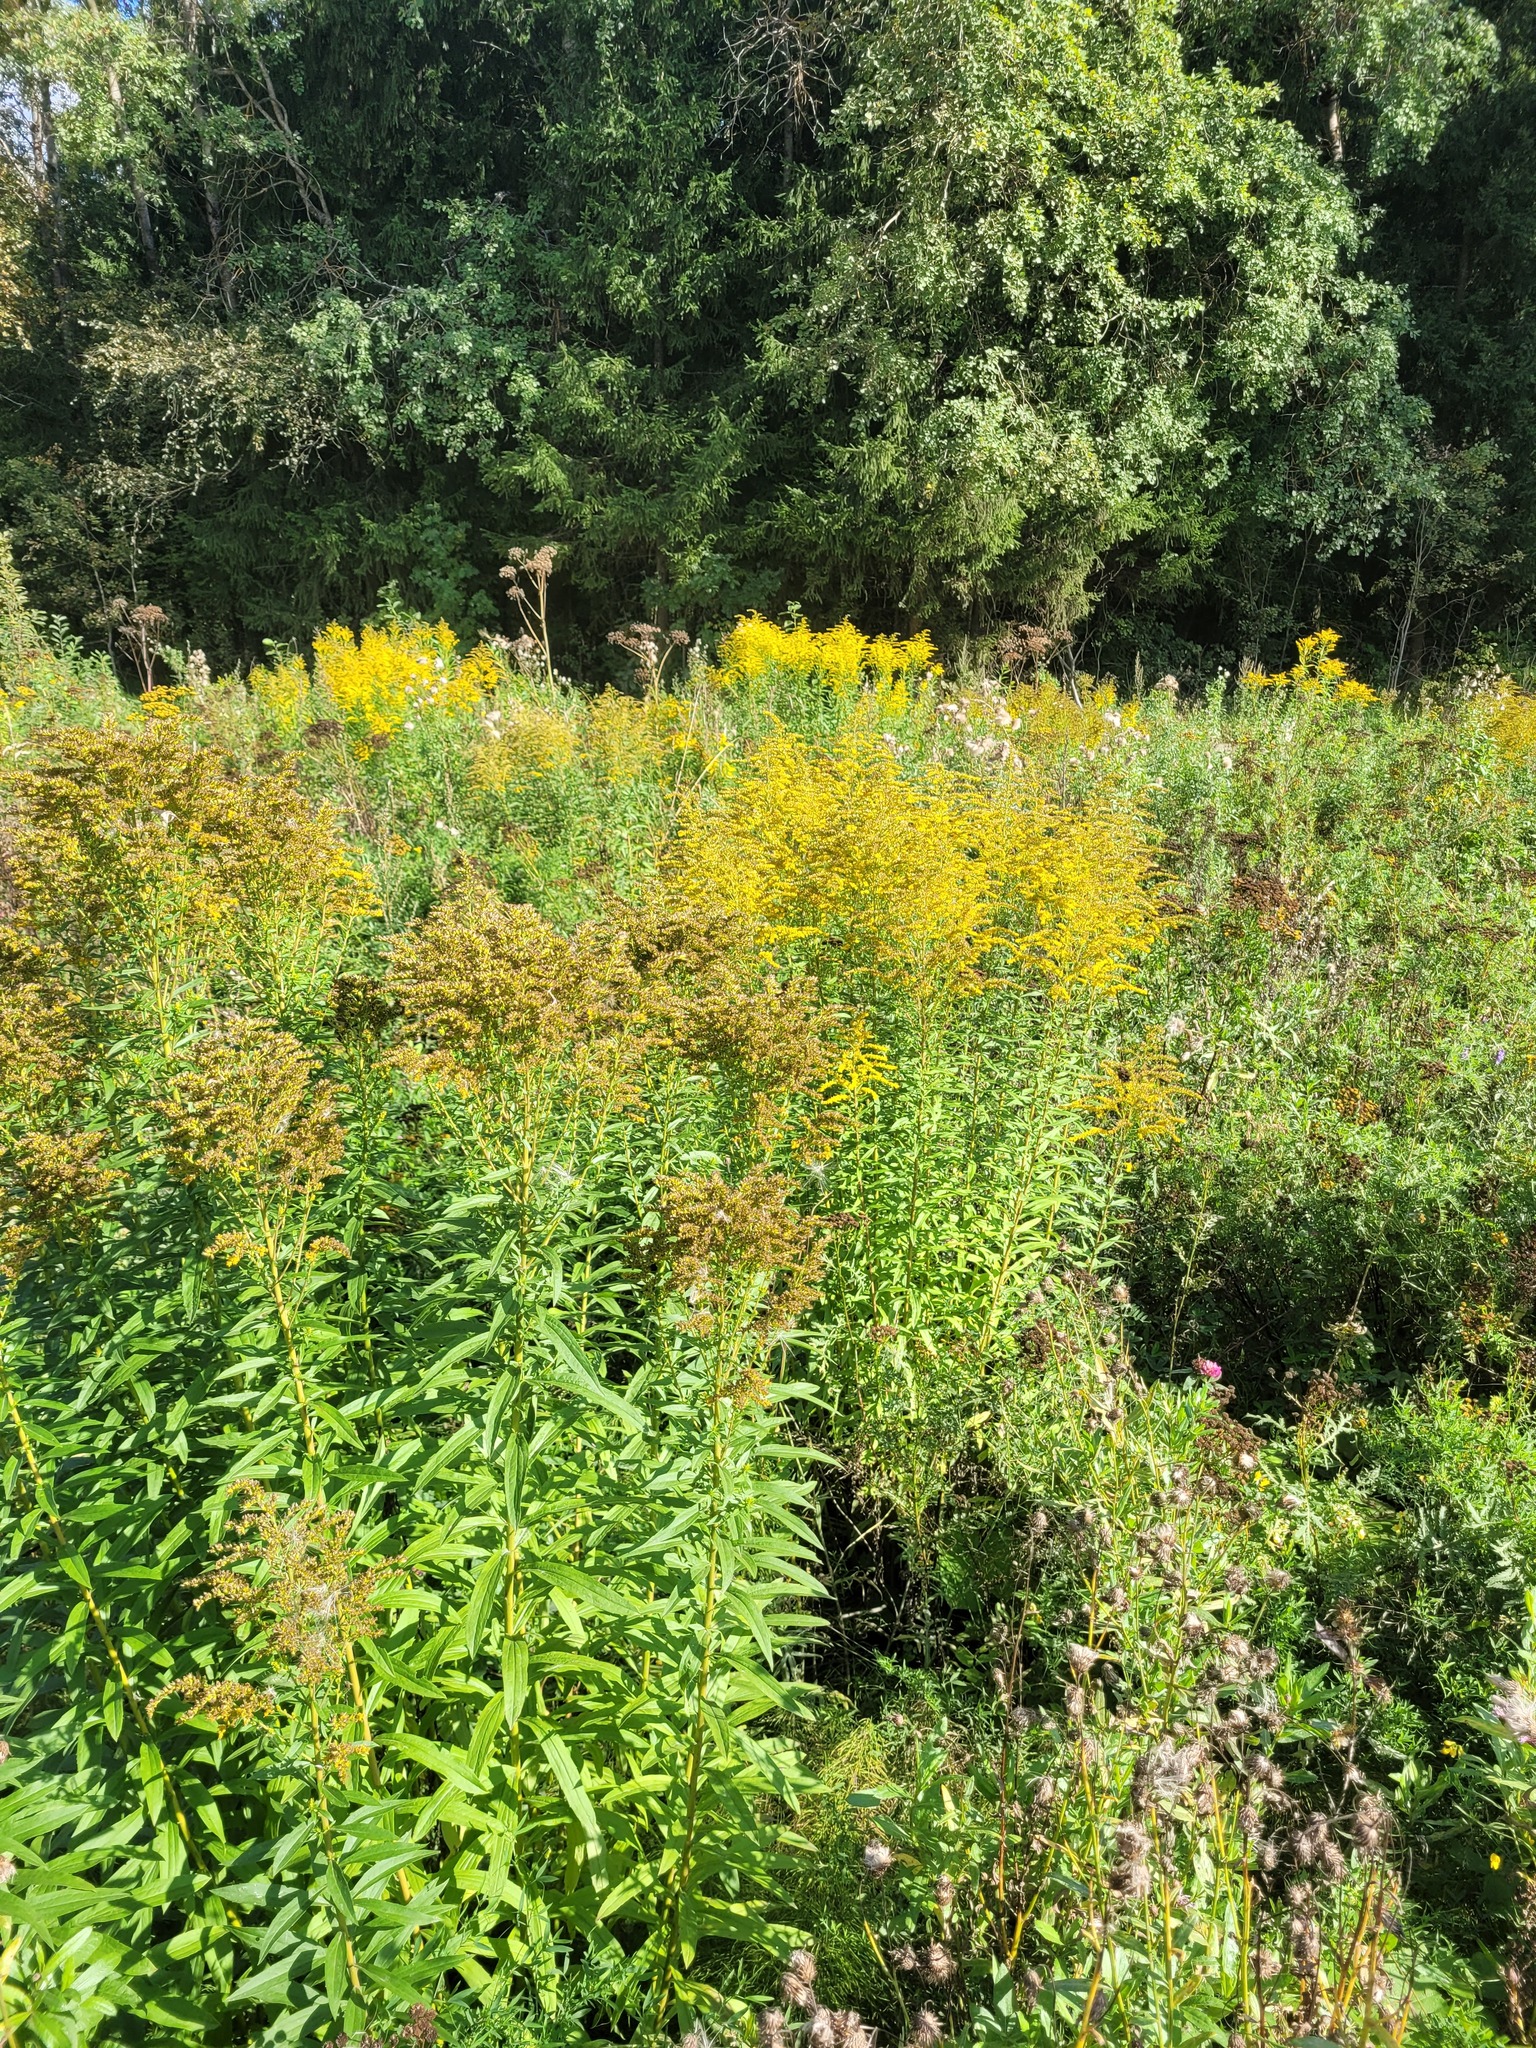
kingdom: Plantae
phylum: Tracheophyta
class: Magnoliopsida
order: Asterales
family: Asteraceae
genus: Solidago
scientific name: Solidago canadensis
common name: Canada goldenrod
